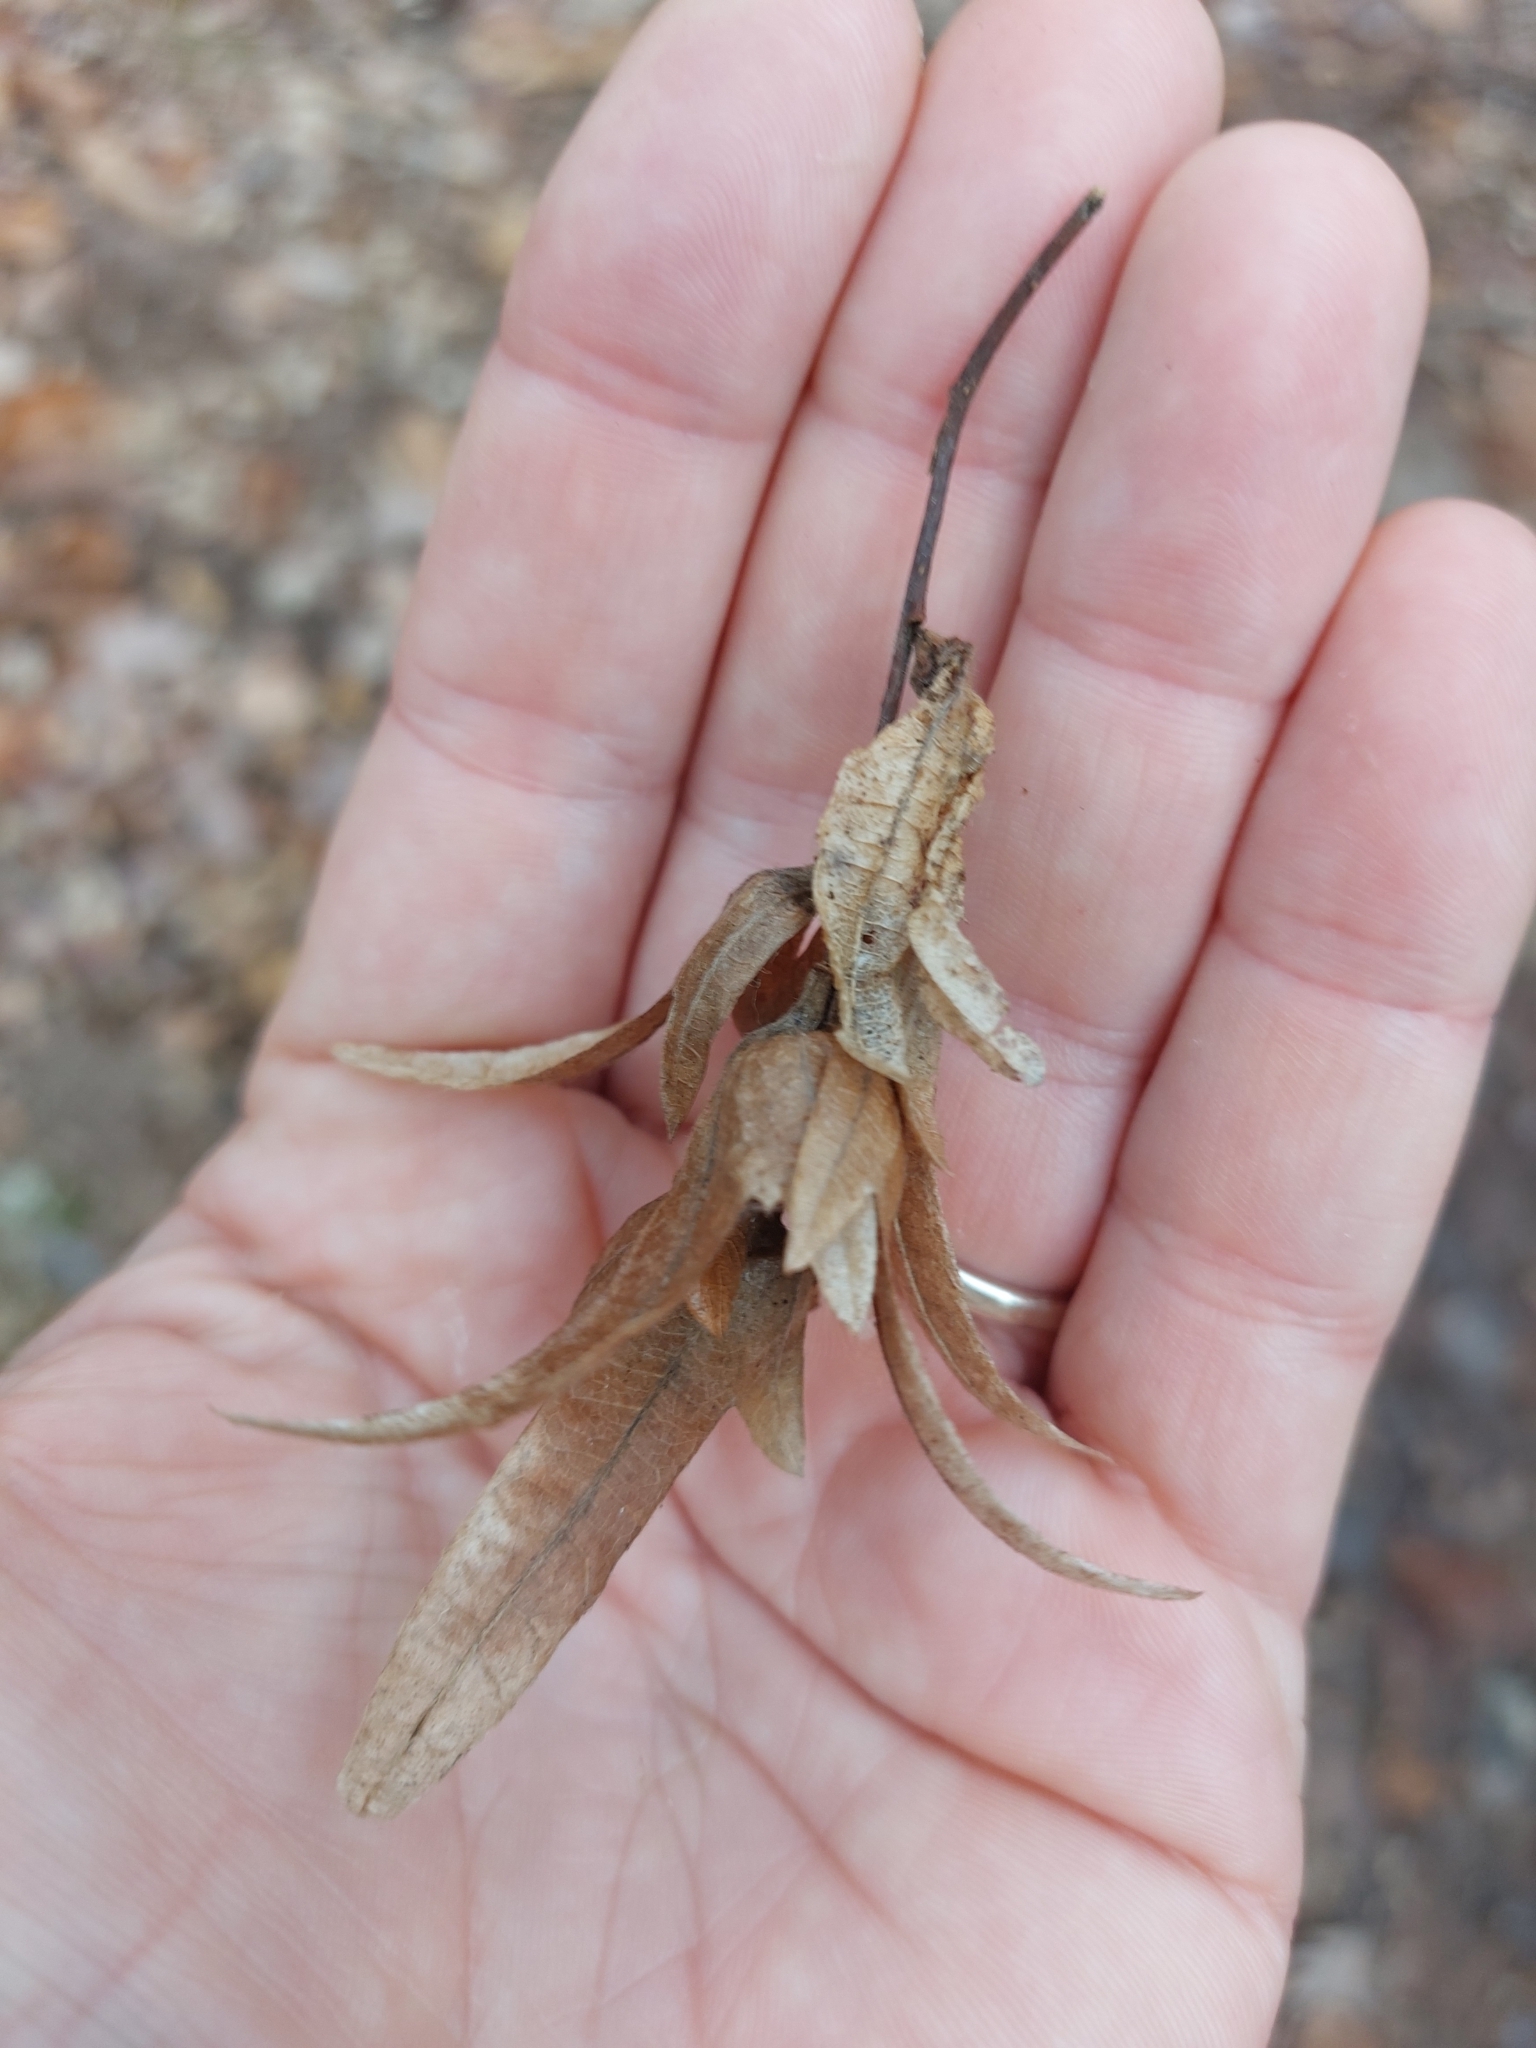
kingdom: Plantae
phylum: Tracheophyta
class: Magnoliopsida
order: Fagales
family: Betulaceae
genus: Carpinus
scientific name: Carpinus betulus
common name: Hornbeam
